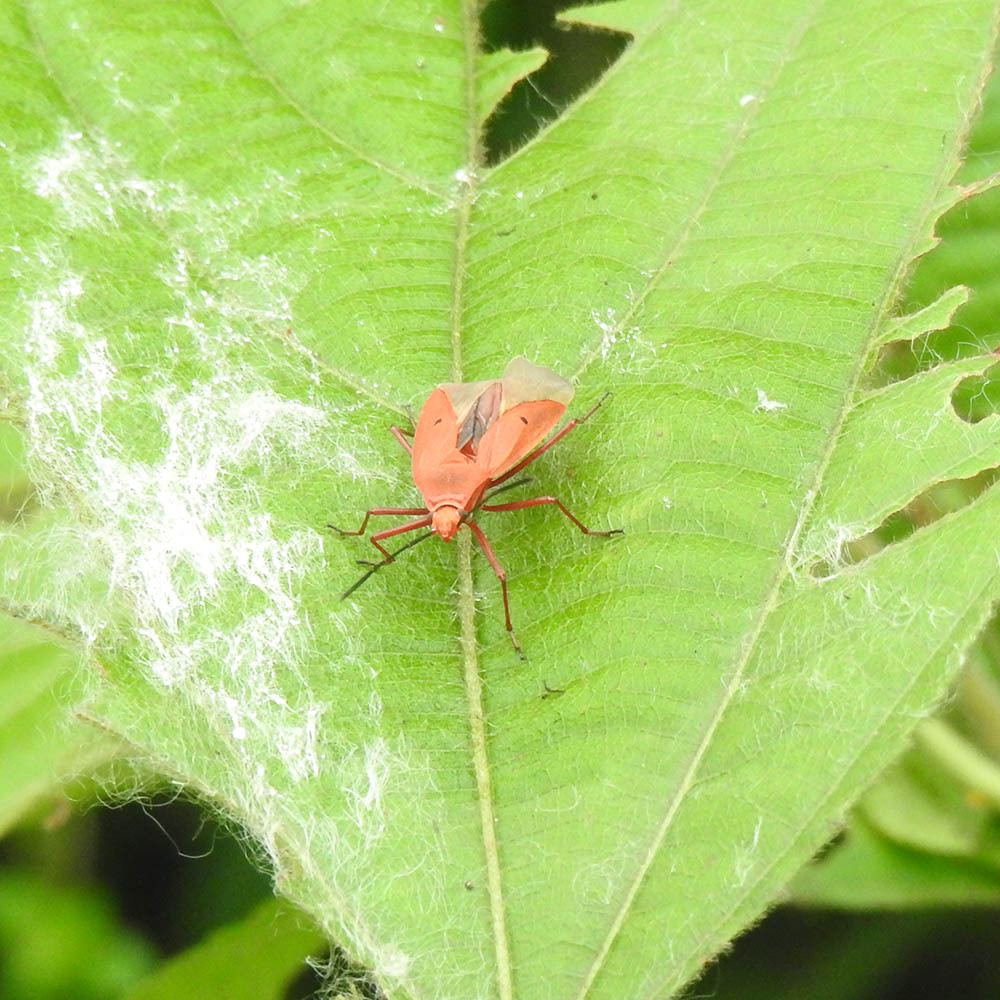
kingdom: Animalia
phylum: Arthropoda
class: Insecta
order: Hemiptera
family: Pyrrhocoridae
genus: Dysdercus
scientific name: Dysdercus evanescens
